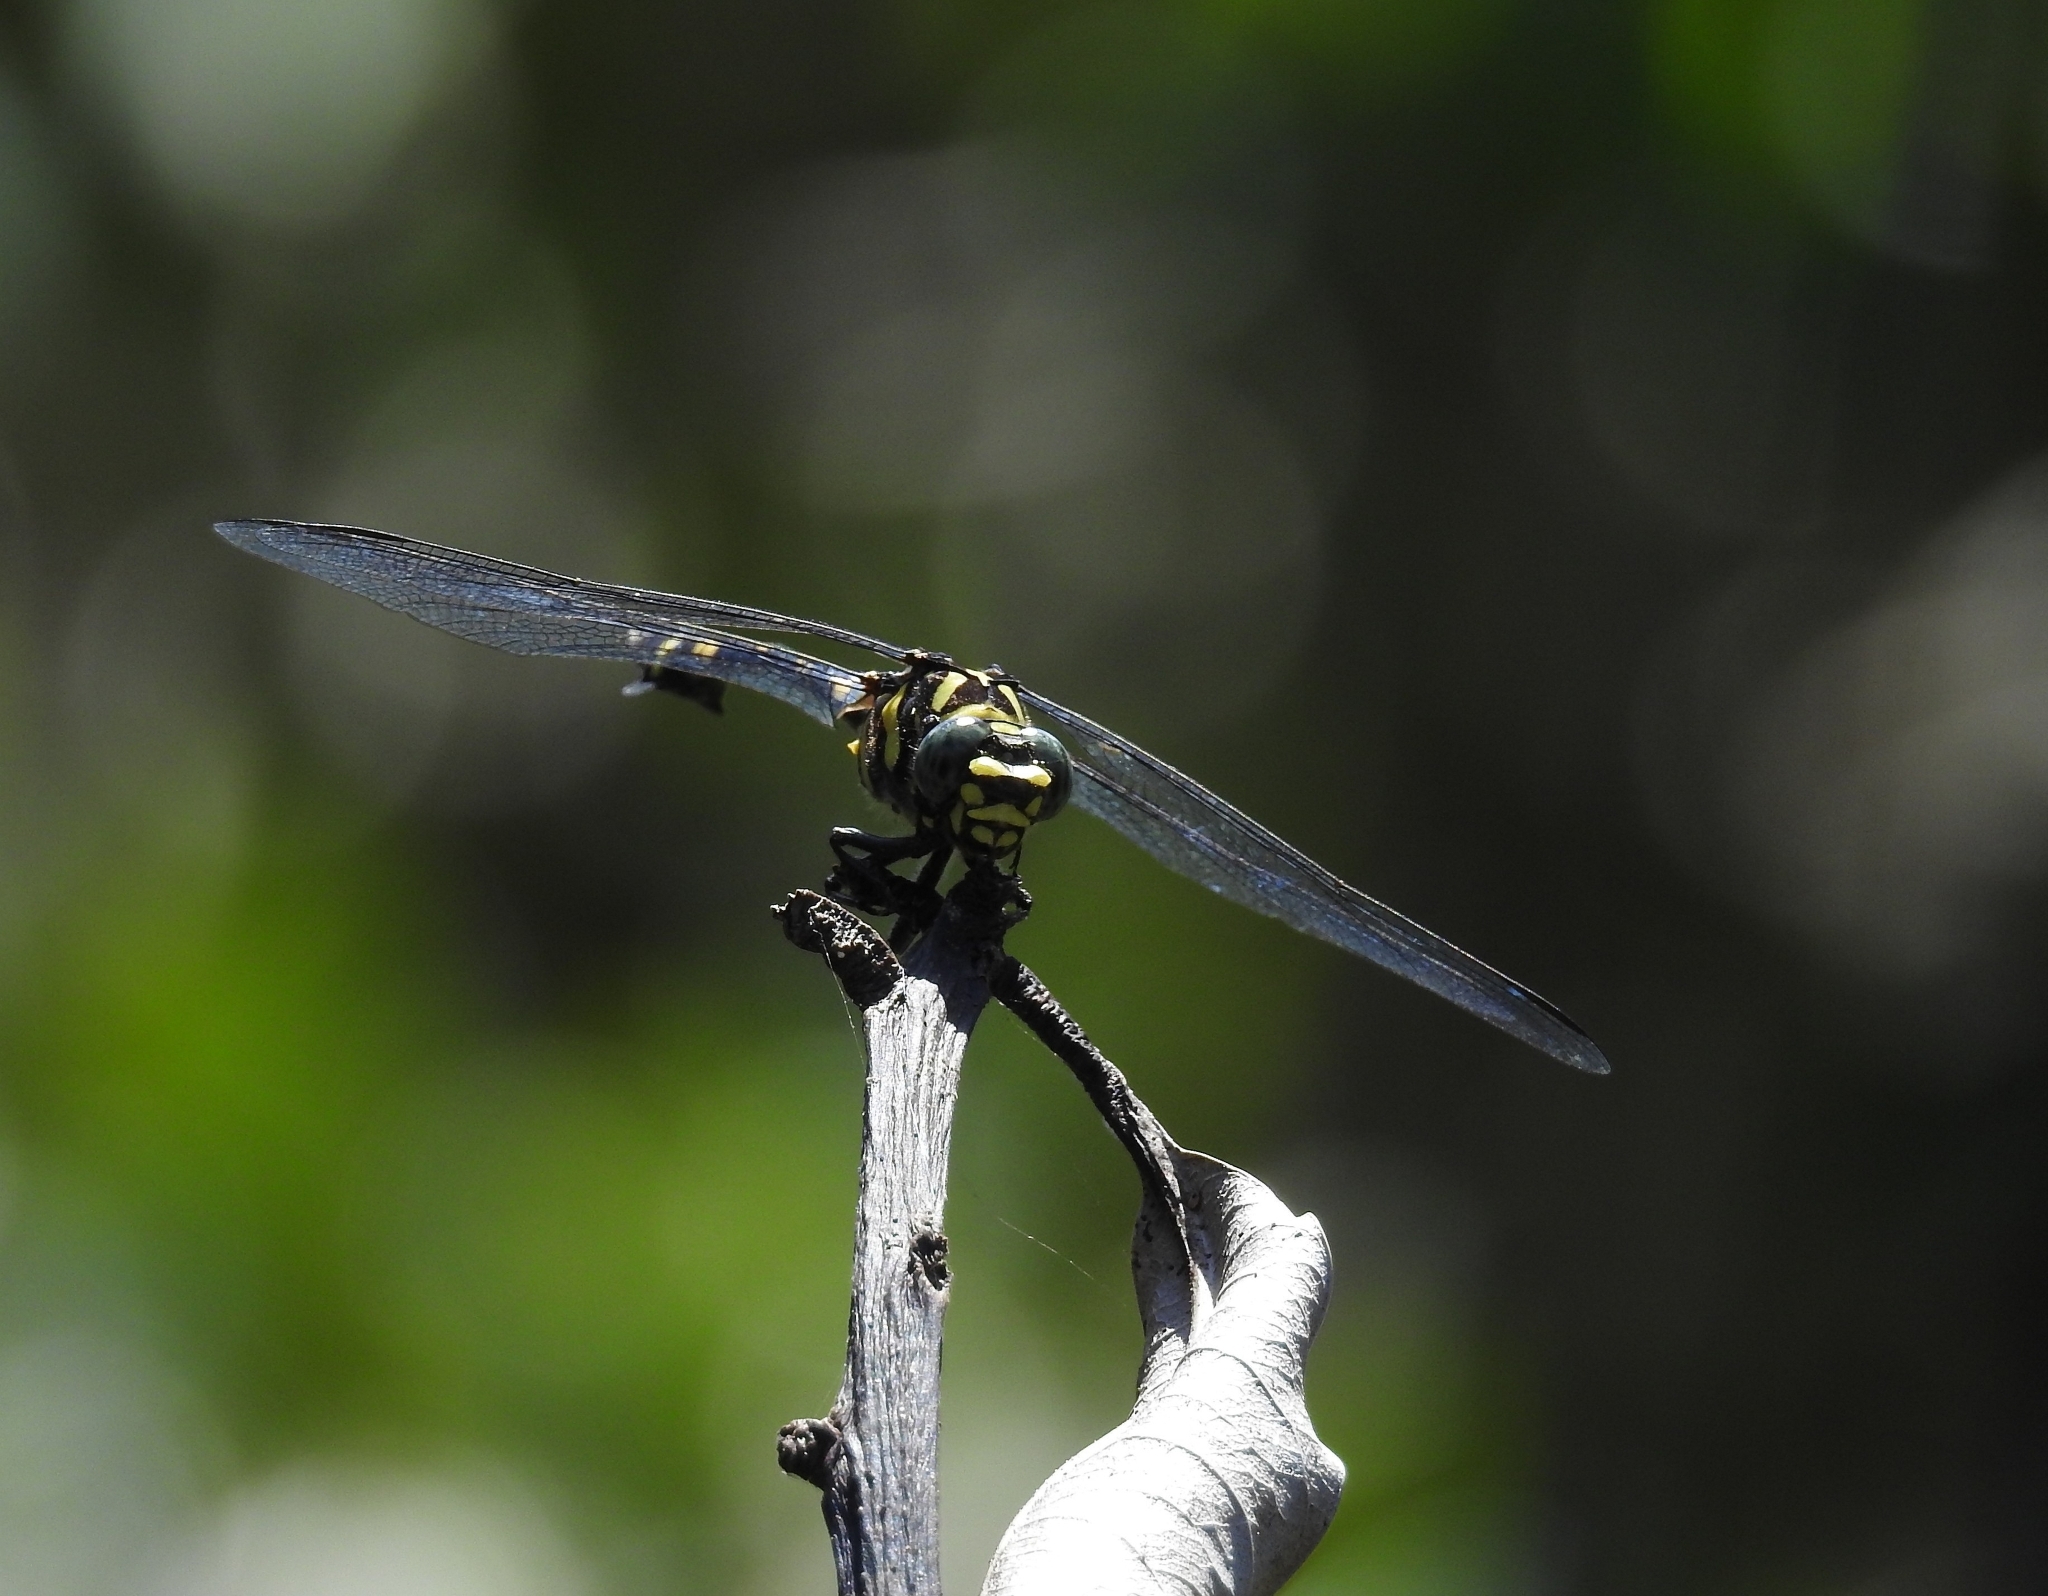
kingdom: Animalia
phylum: Arthropoda
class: Insecta
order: Odonata
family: Gomphidae
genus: Ictinogomphus
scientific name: Ictinogomphus rapax
